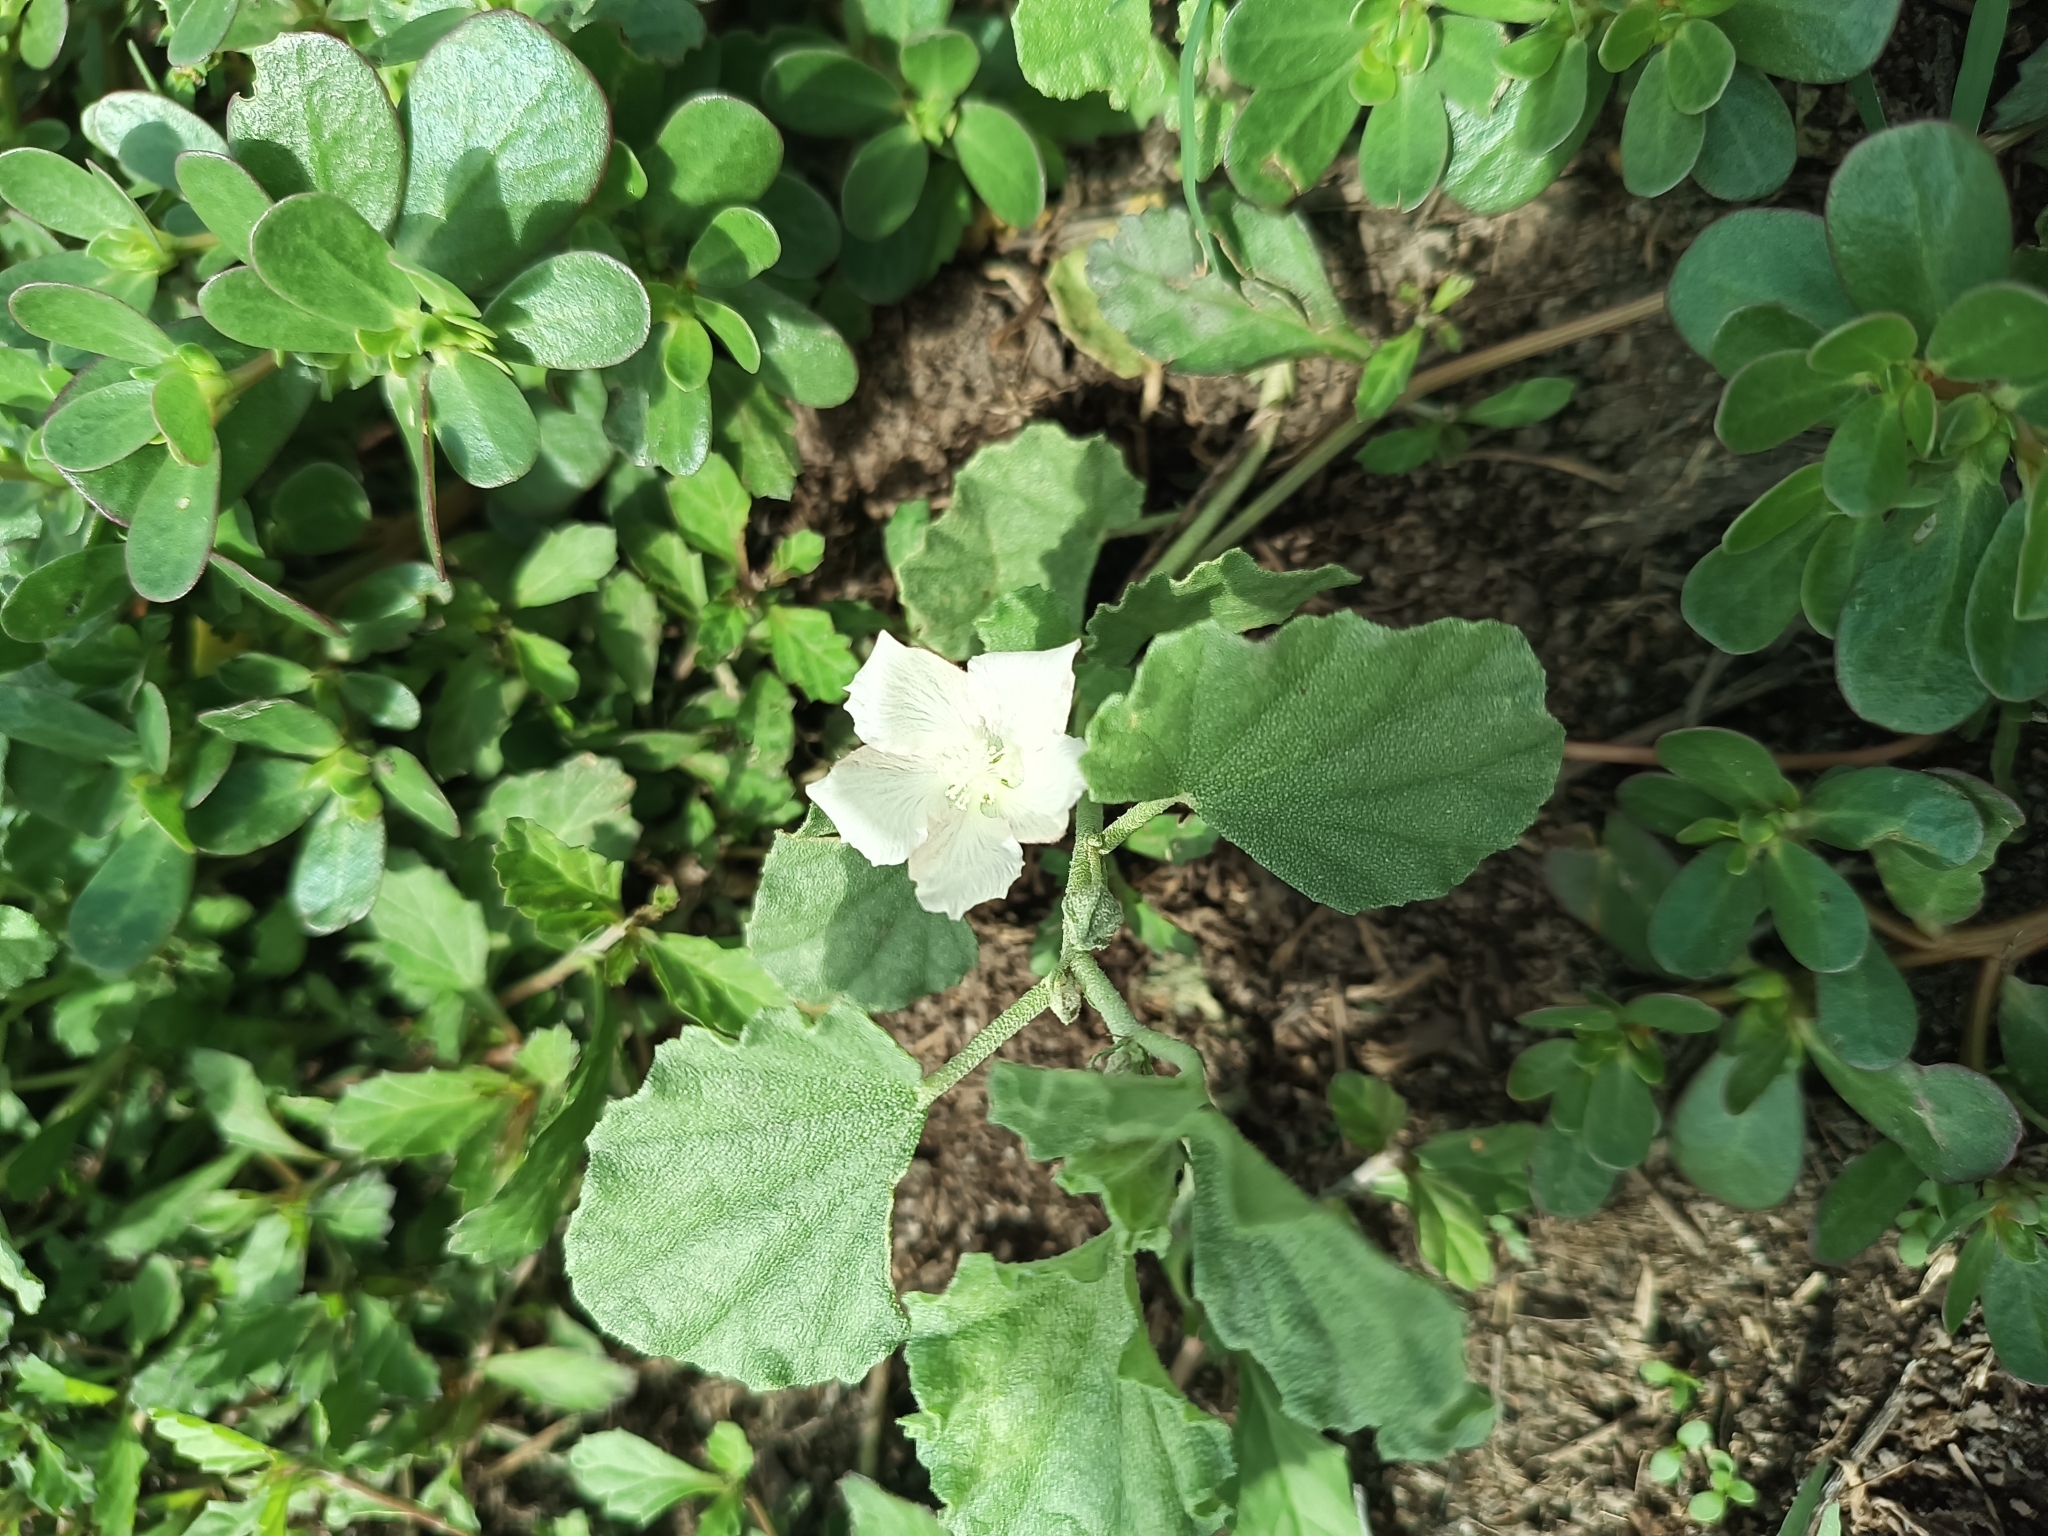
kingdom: Plantae
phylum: Tracheophyta
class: Magnoliopsida
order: Malvales
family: Malvaceae
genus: Malvella
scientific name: Malvella leprosa
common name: Alkali-mallow
